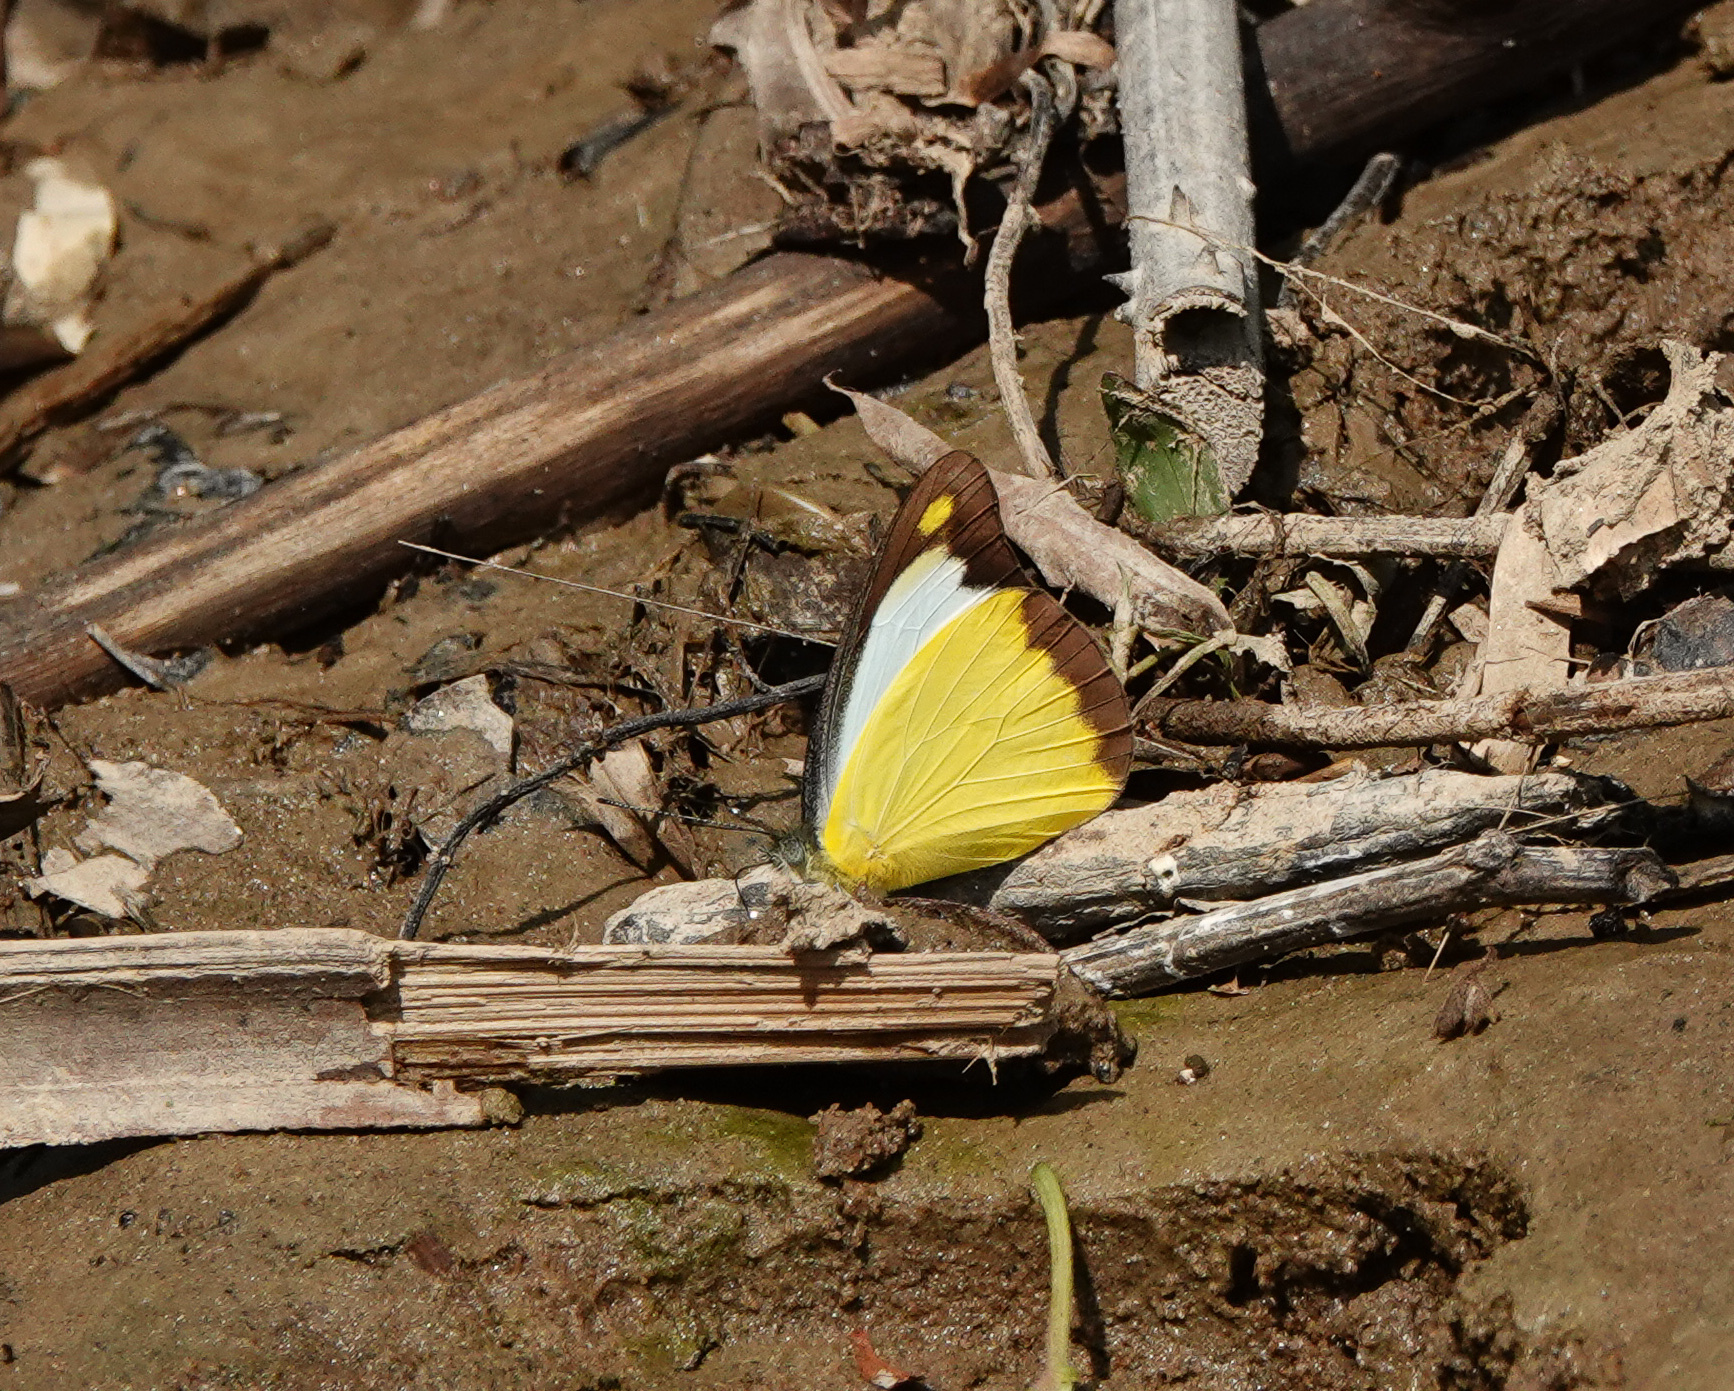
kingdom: Animalia
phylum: Arthropoda
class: Insecta
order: Lepidoptera
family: Pieridae
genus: Appias
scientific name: Appias lyncida
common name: Chocolate albatross
